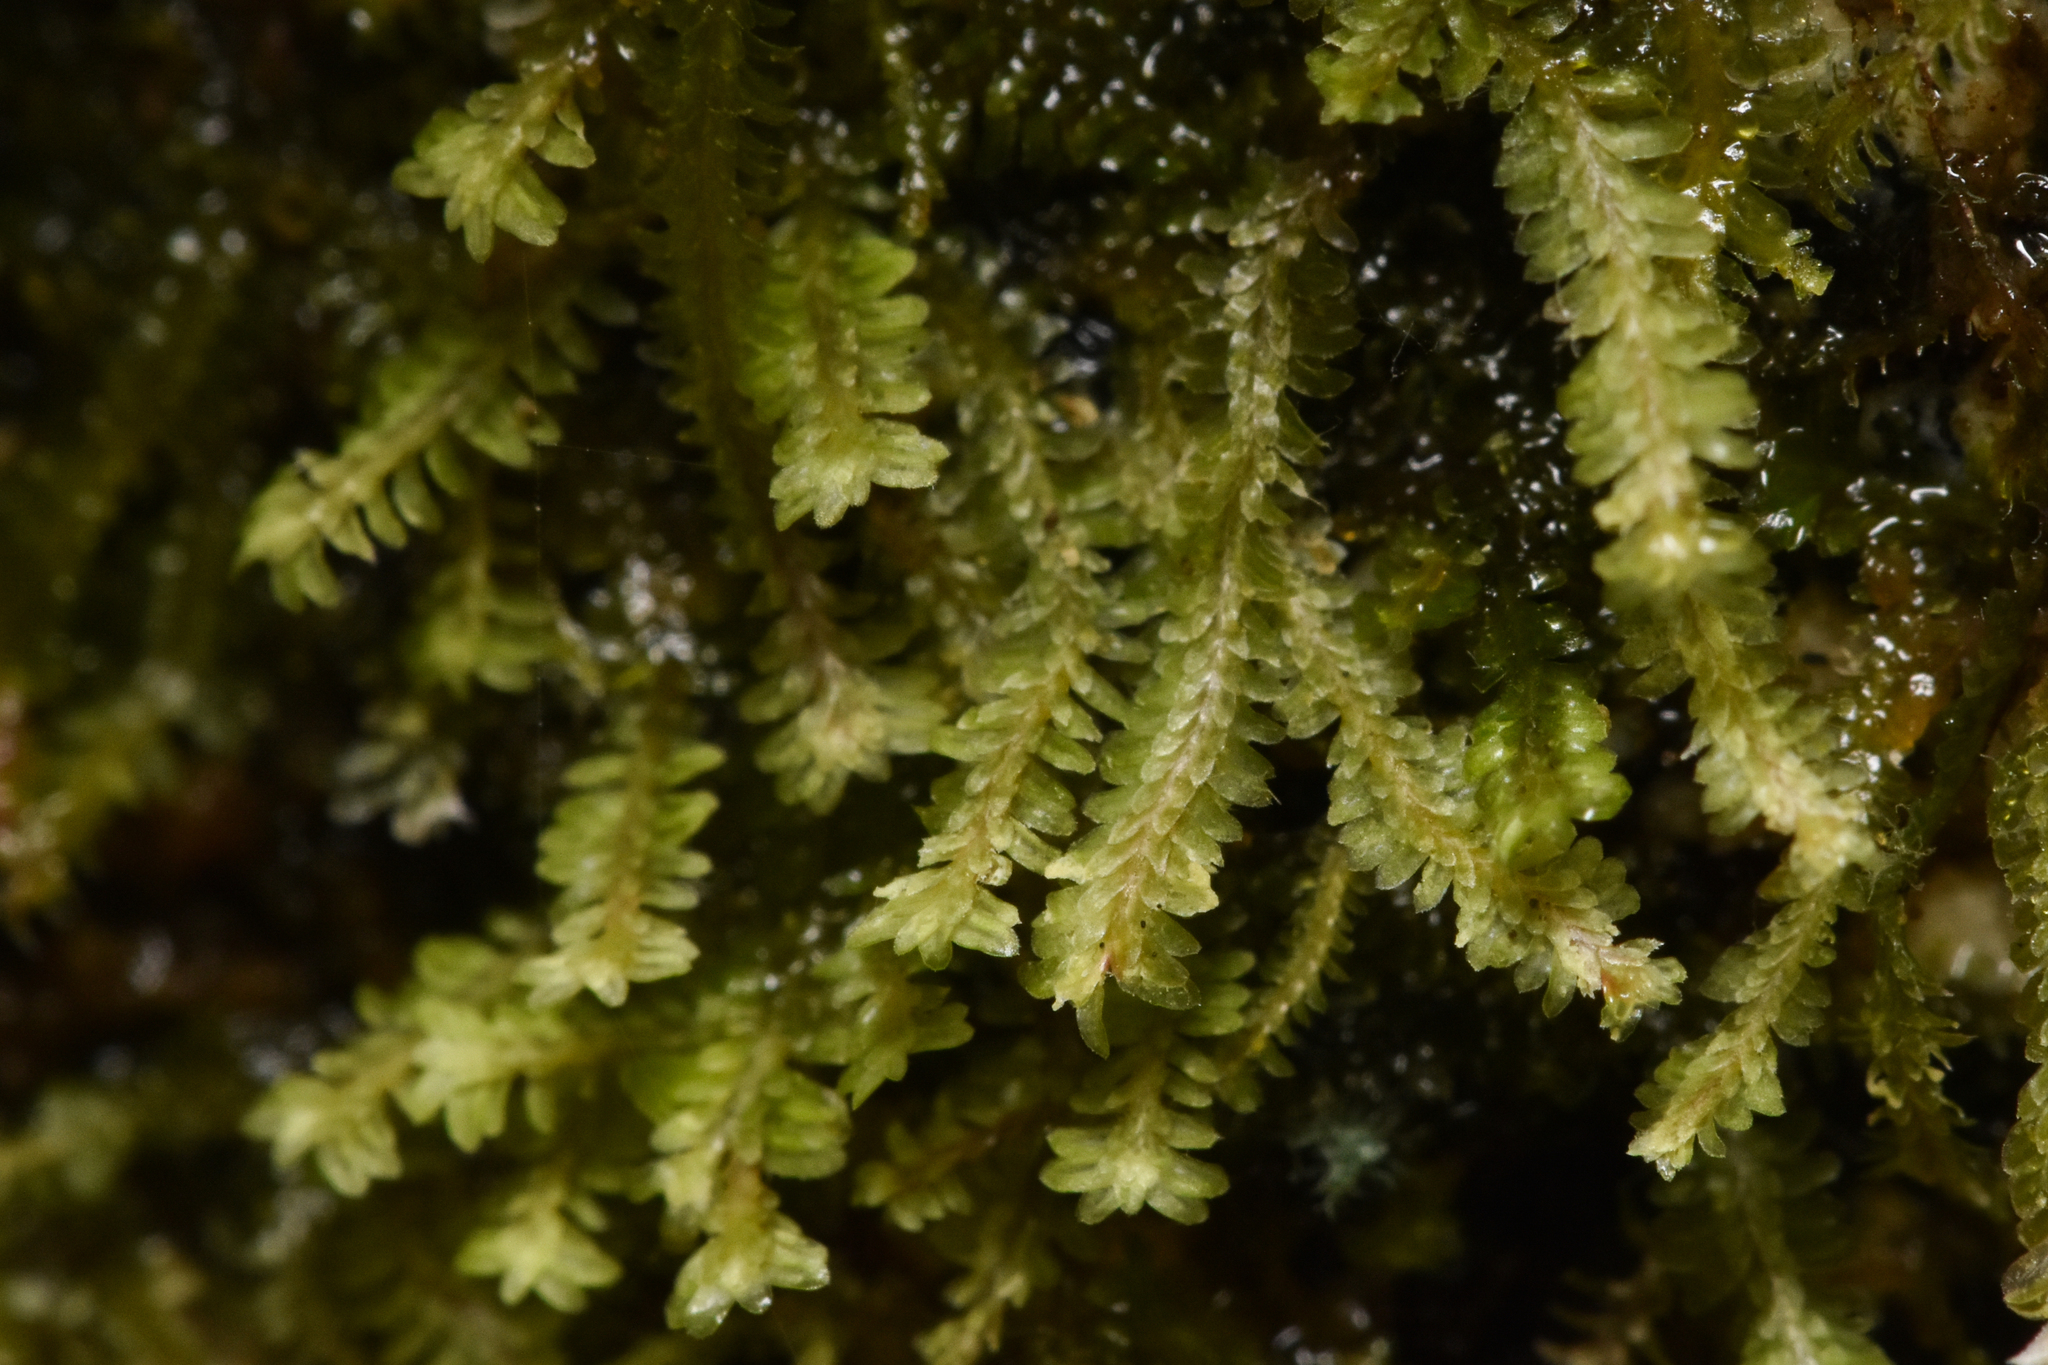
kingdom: Plantae
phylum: Marchantiophyta
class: Jungermanniopsida
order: Jungermanniales
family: Scapaniaceae
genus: Diplophyllum
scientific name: Diplophyllum albicans
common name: White earwort
